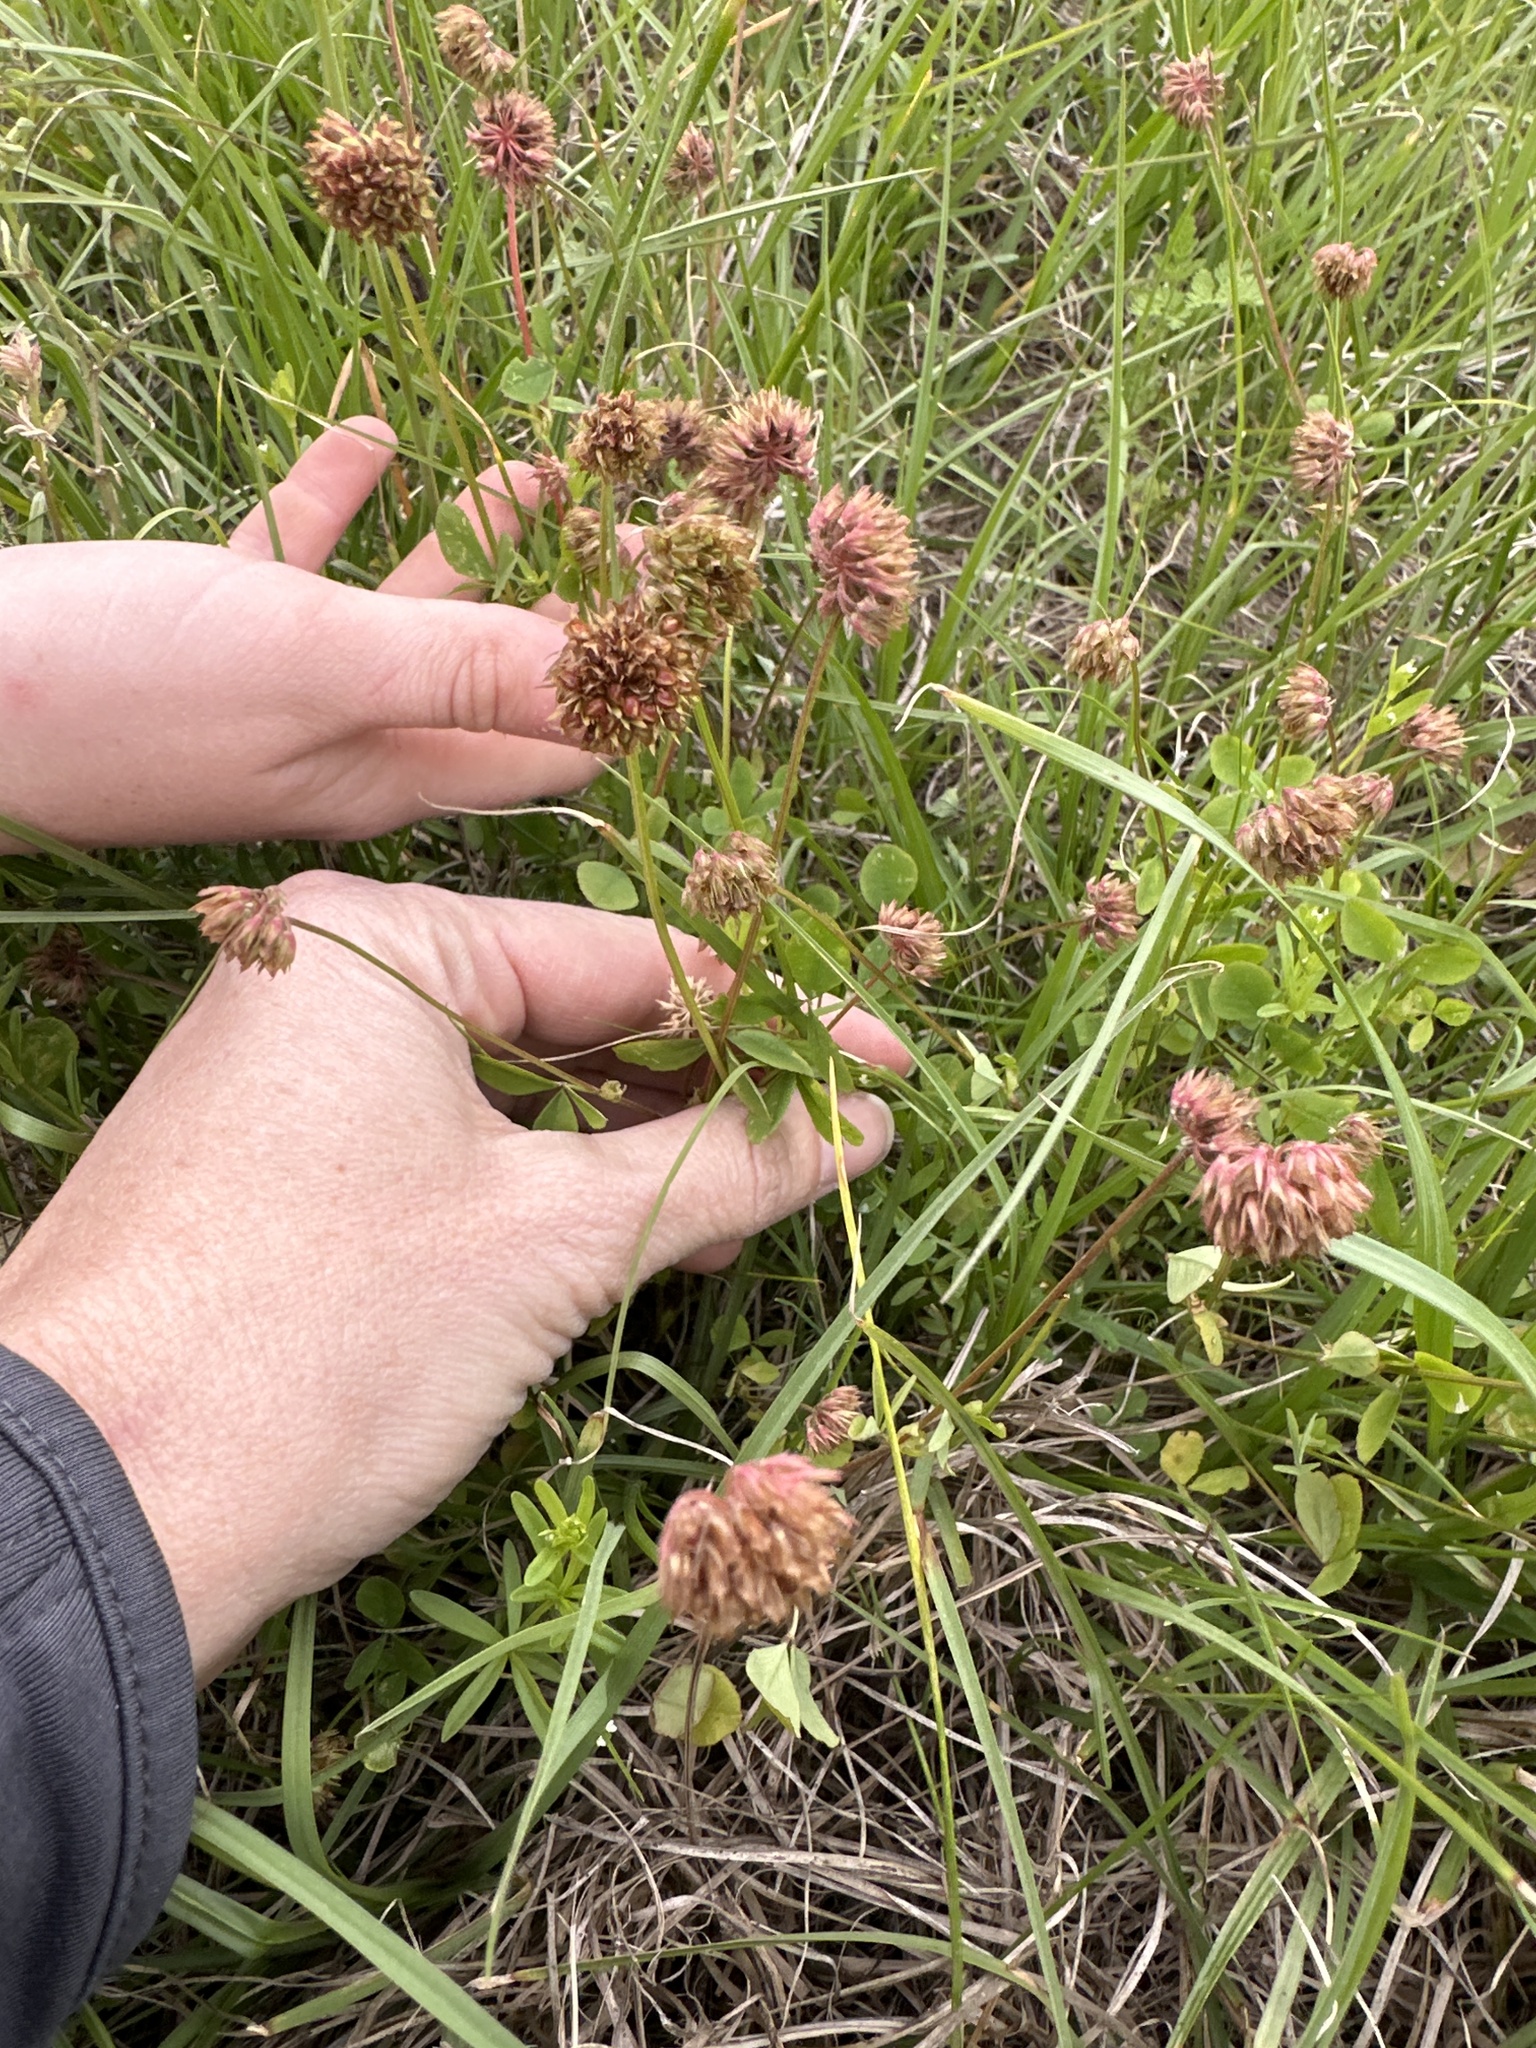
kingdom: Plantae
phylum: Tracheophyta
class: Magnoliopsida
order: Fabales
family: Fabaceae
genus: Trifolium
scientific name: Trifolium carolinianum
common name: Wild white clover
